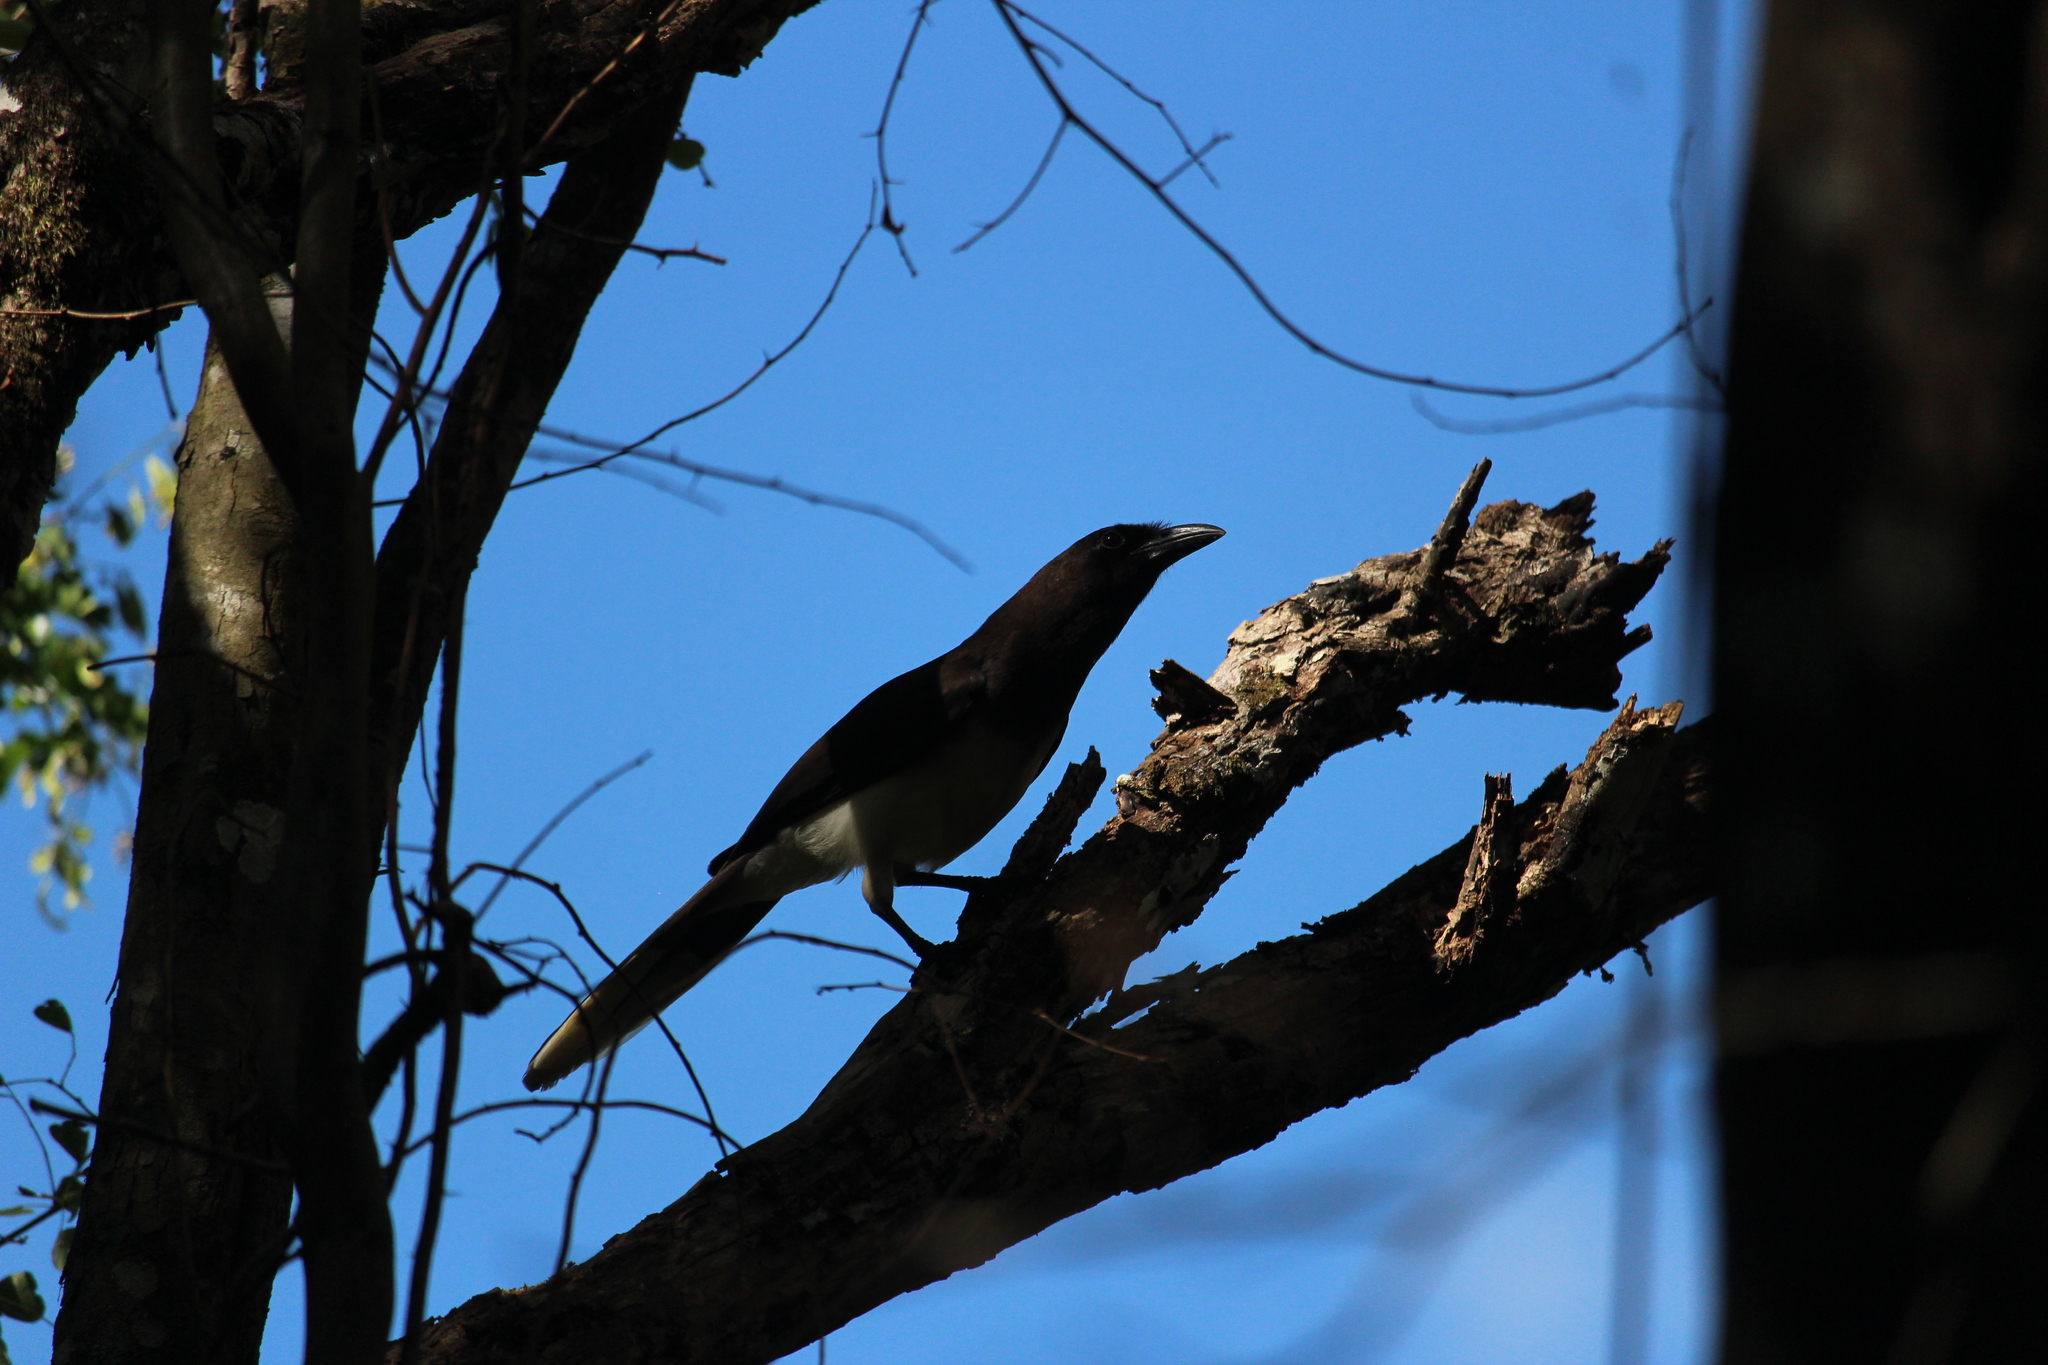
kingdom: Animalia
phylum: Chordata
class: Aves
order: Passeriformes
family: Corvidae
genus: Psilorhinus
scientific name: Psilorhinus morio
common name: Brown jay
